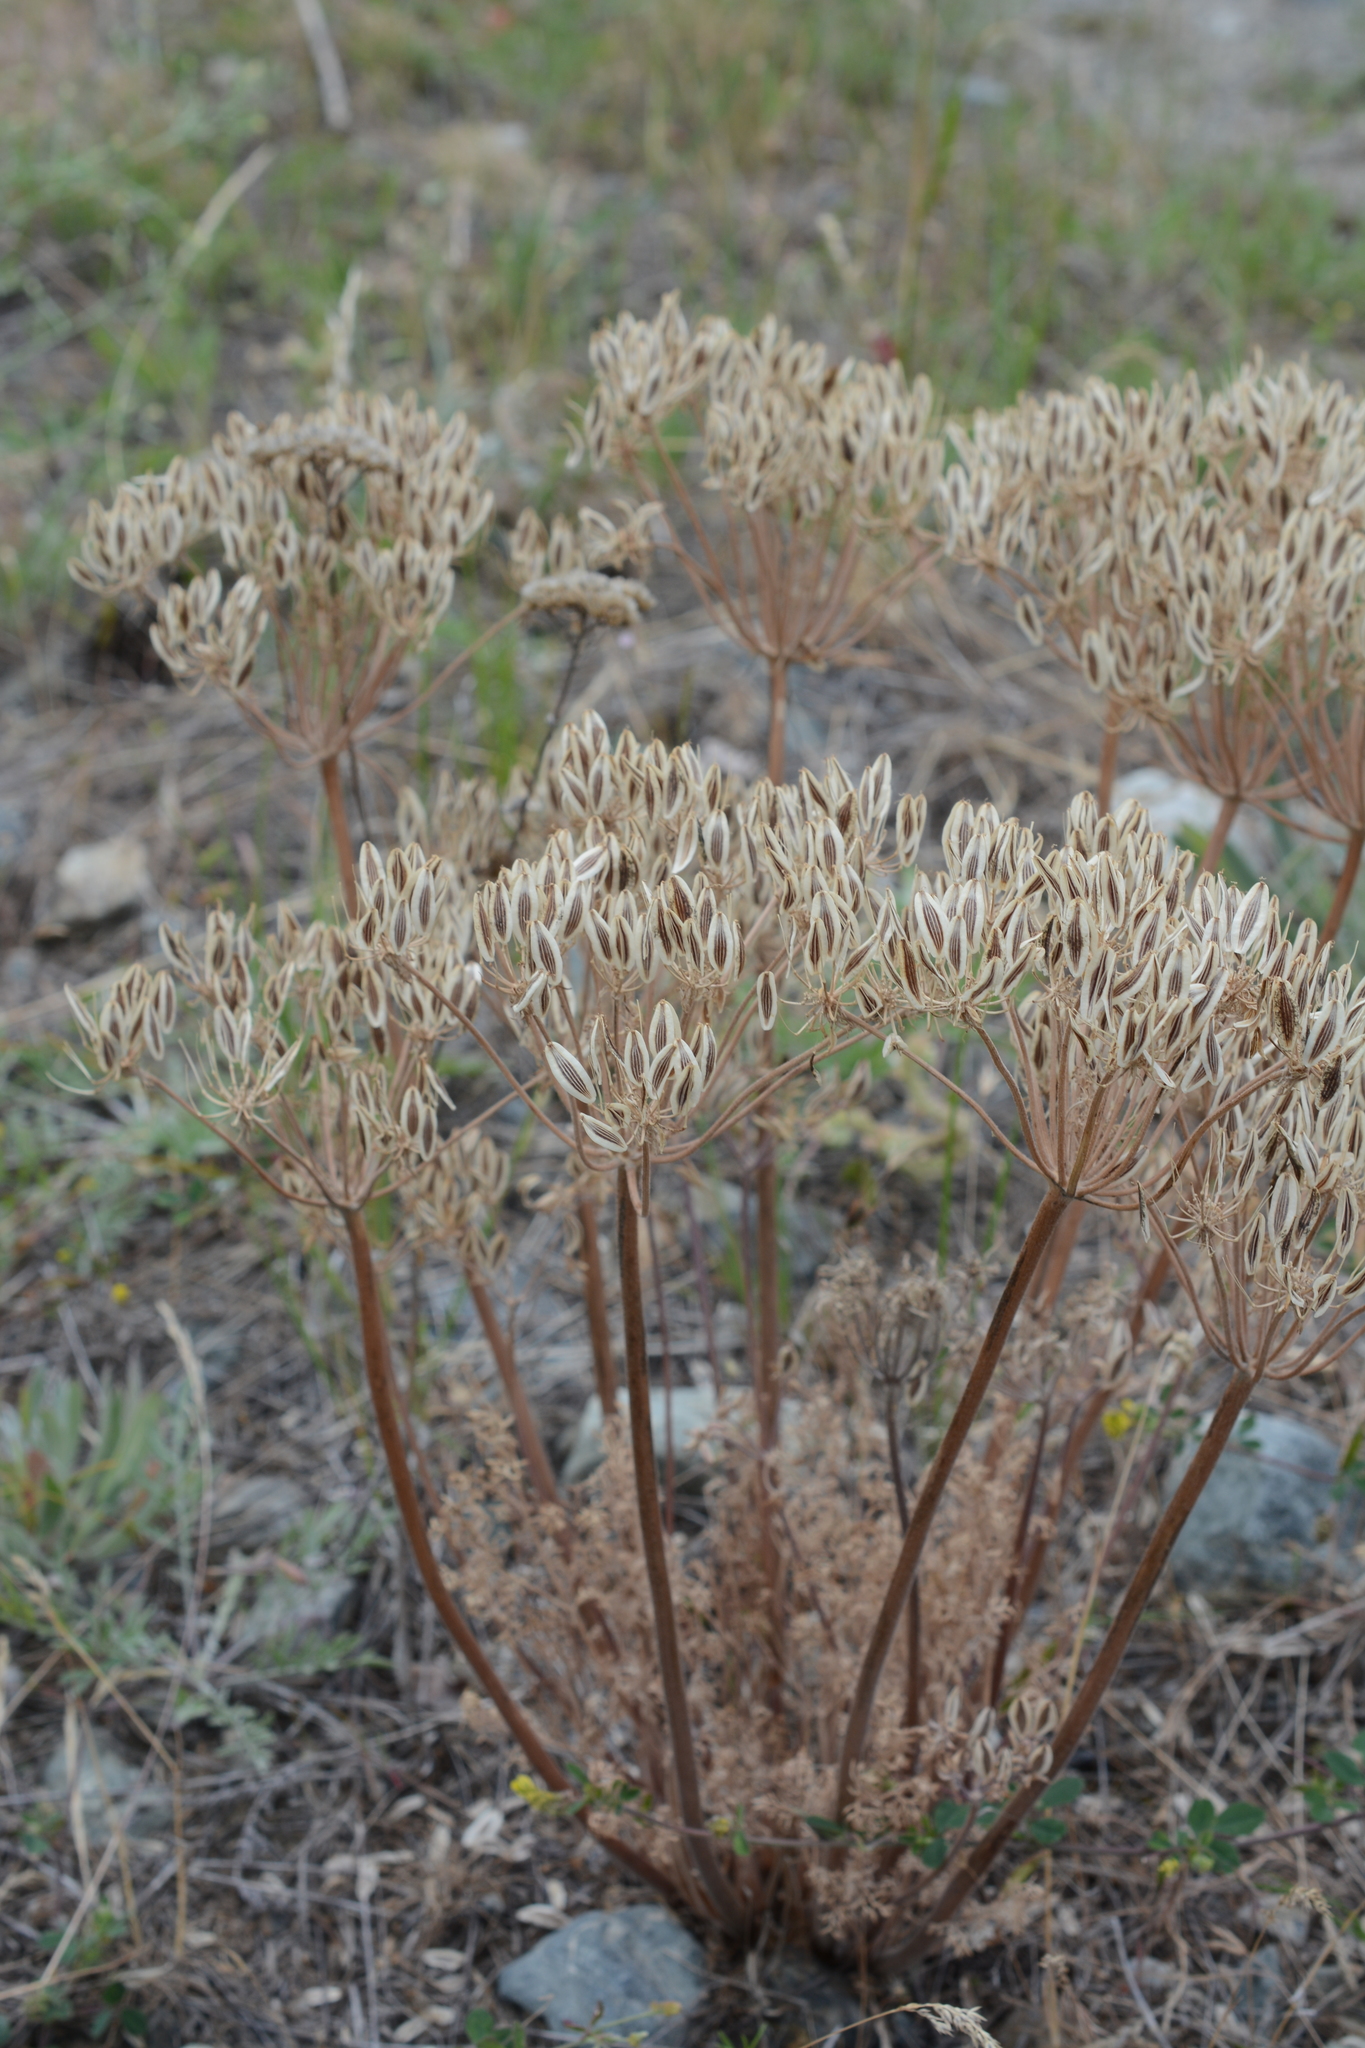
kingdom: Plantae
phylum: Tracheophyta
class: Magnoliopsida
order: Apiales
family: Apiaceae
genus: Lomatium
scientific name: Lomatium macrocarpum
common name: Big-seed biscuitroot
